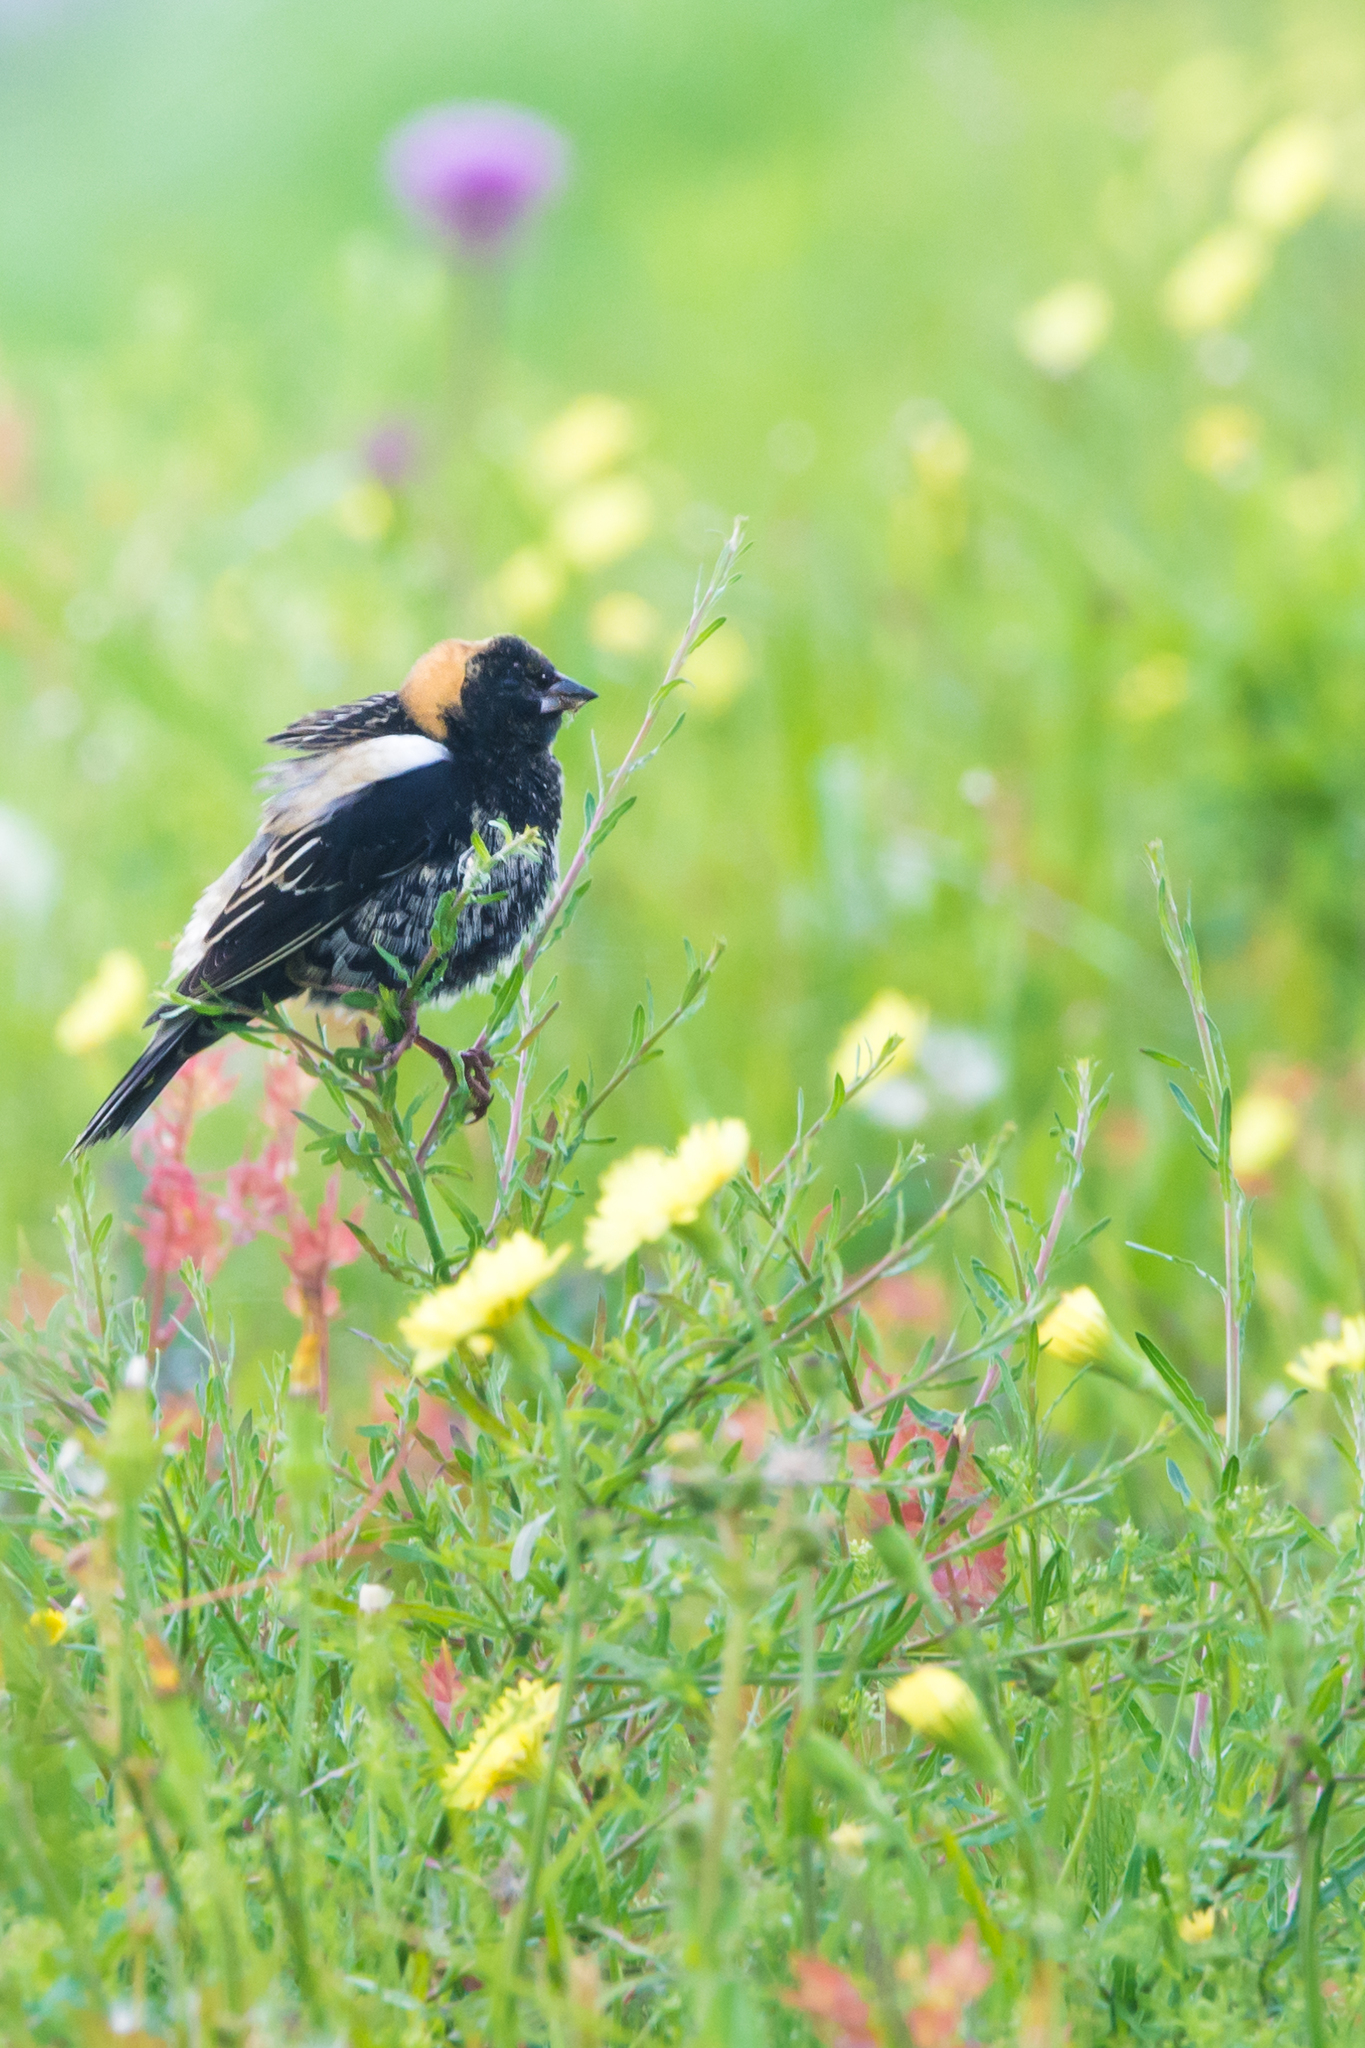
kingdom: Animalia
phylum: Chordata
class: Aves
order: Passeriformes
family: Icteridae
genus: Dolichonyx
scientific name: Dolichonyx oryzivorus
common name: Bobolink
